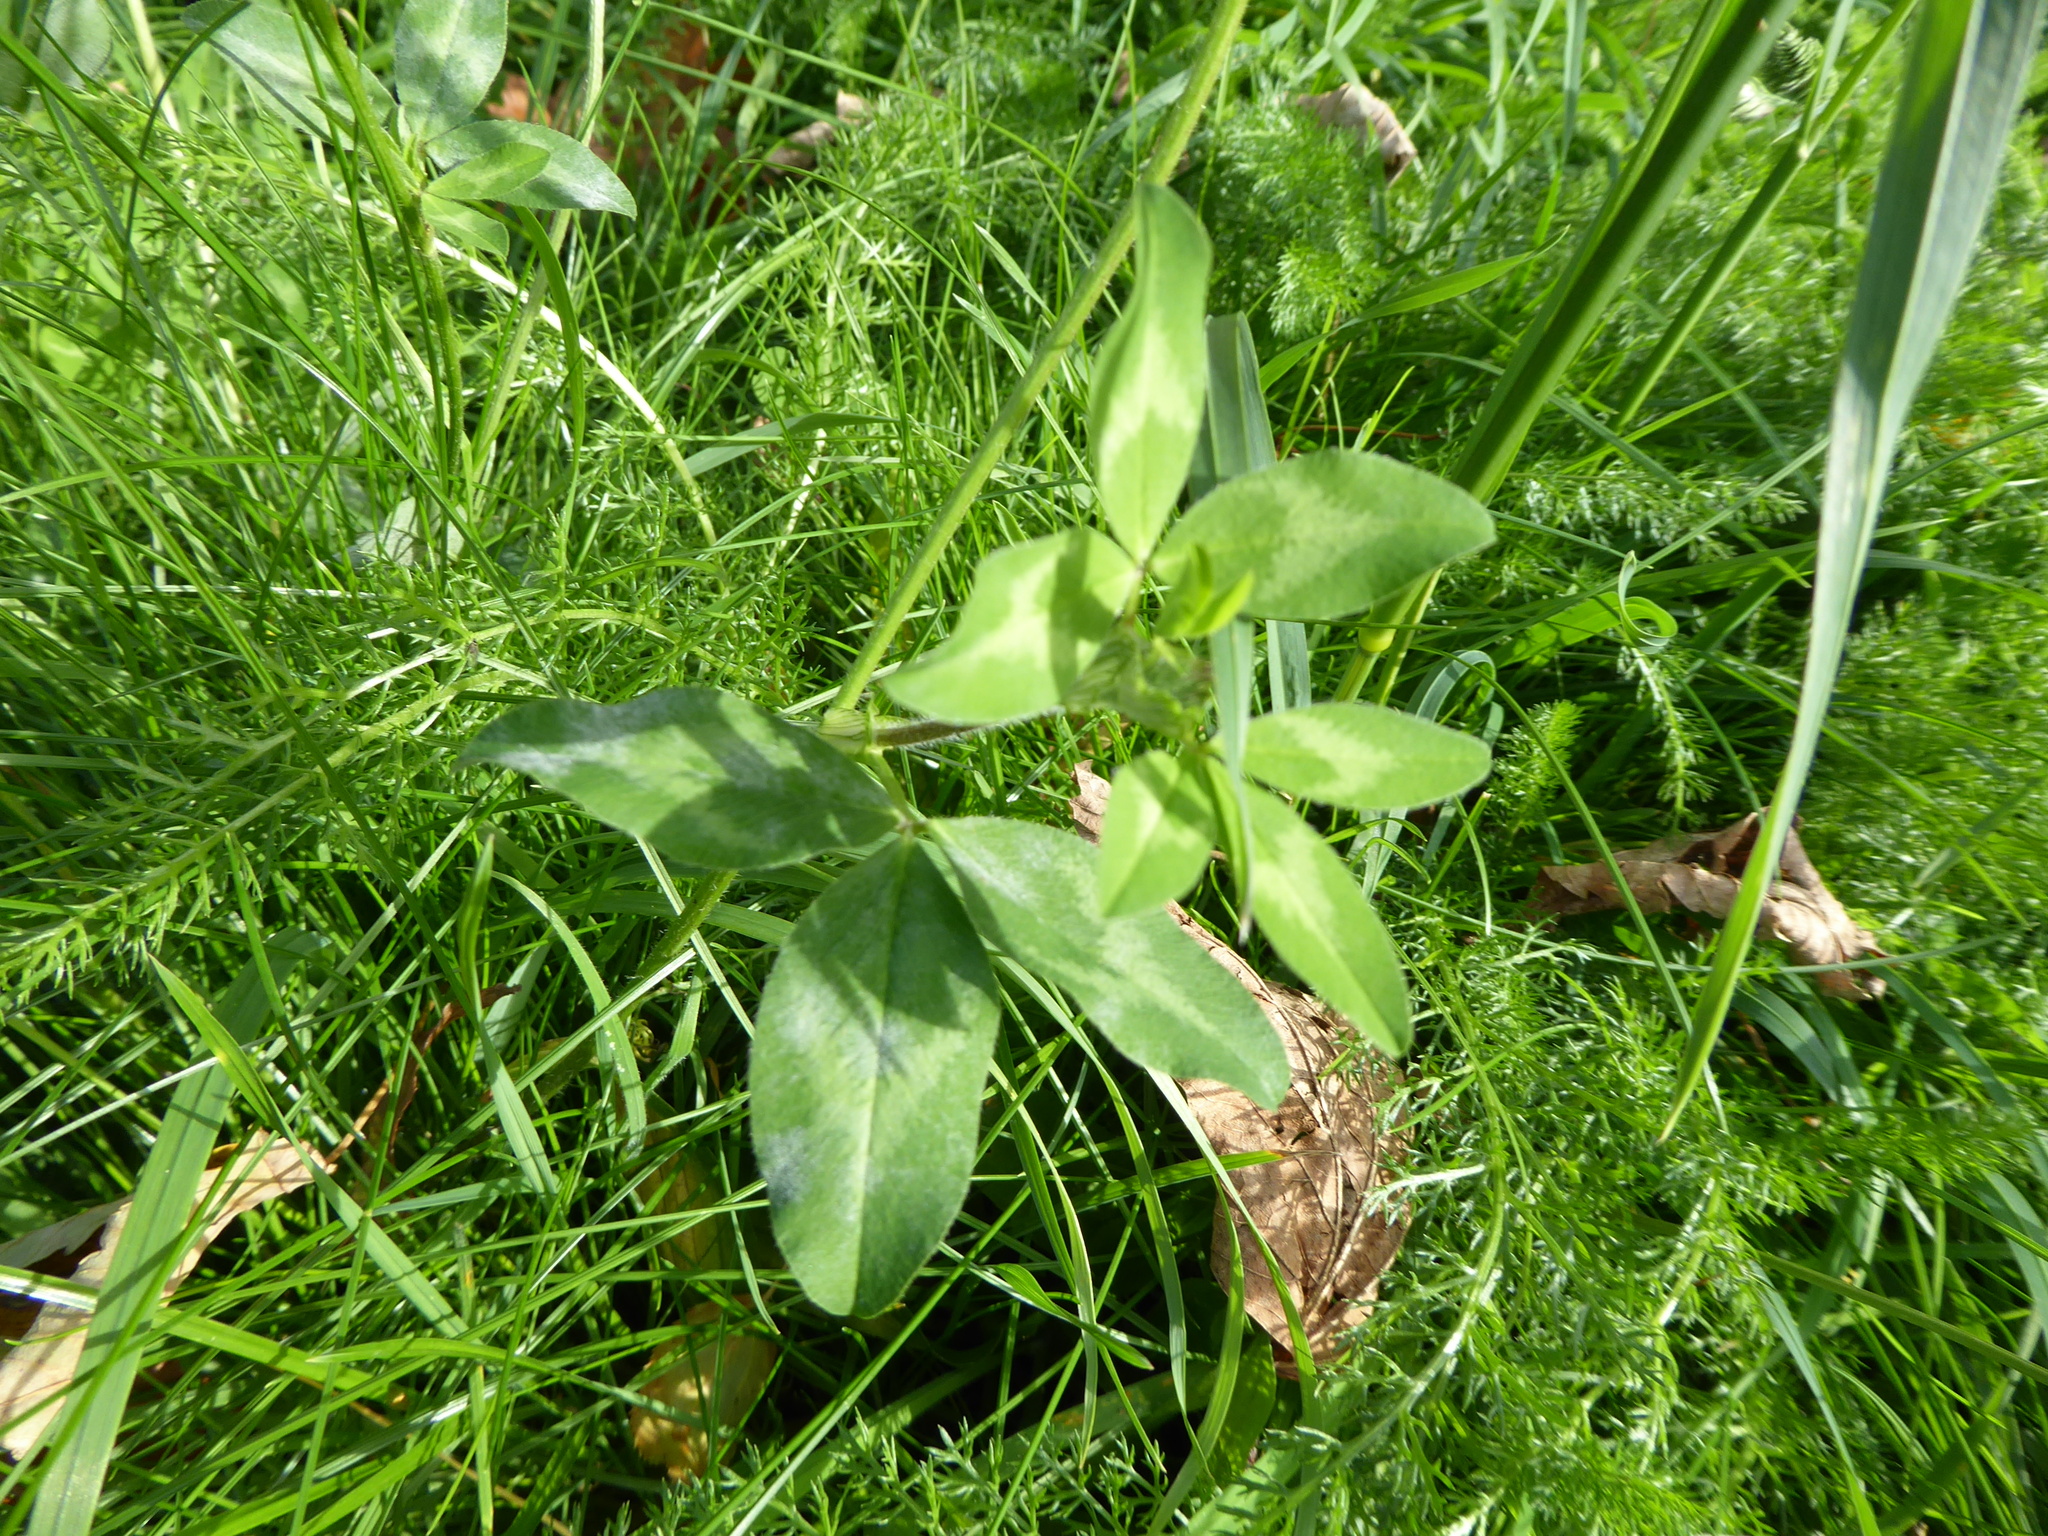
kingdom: Plantae
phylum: Tracheophyta
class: Magnoliopsida
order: Fabales
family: Fabaceae
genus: Trifolium
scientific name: Trifolium pratense
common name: Red clover
